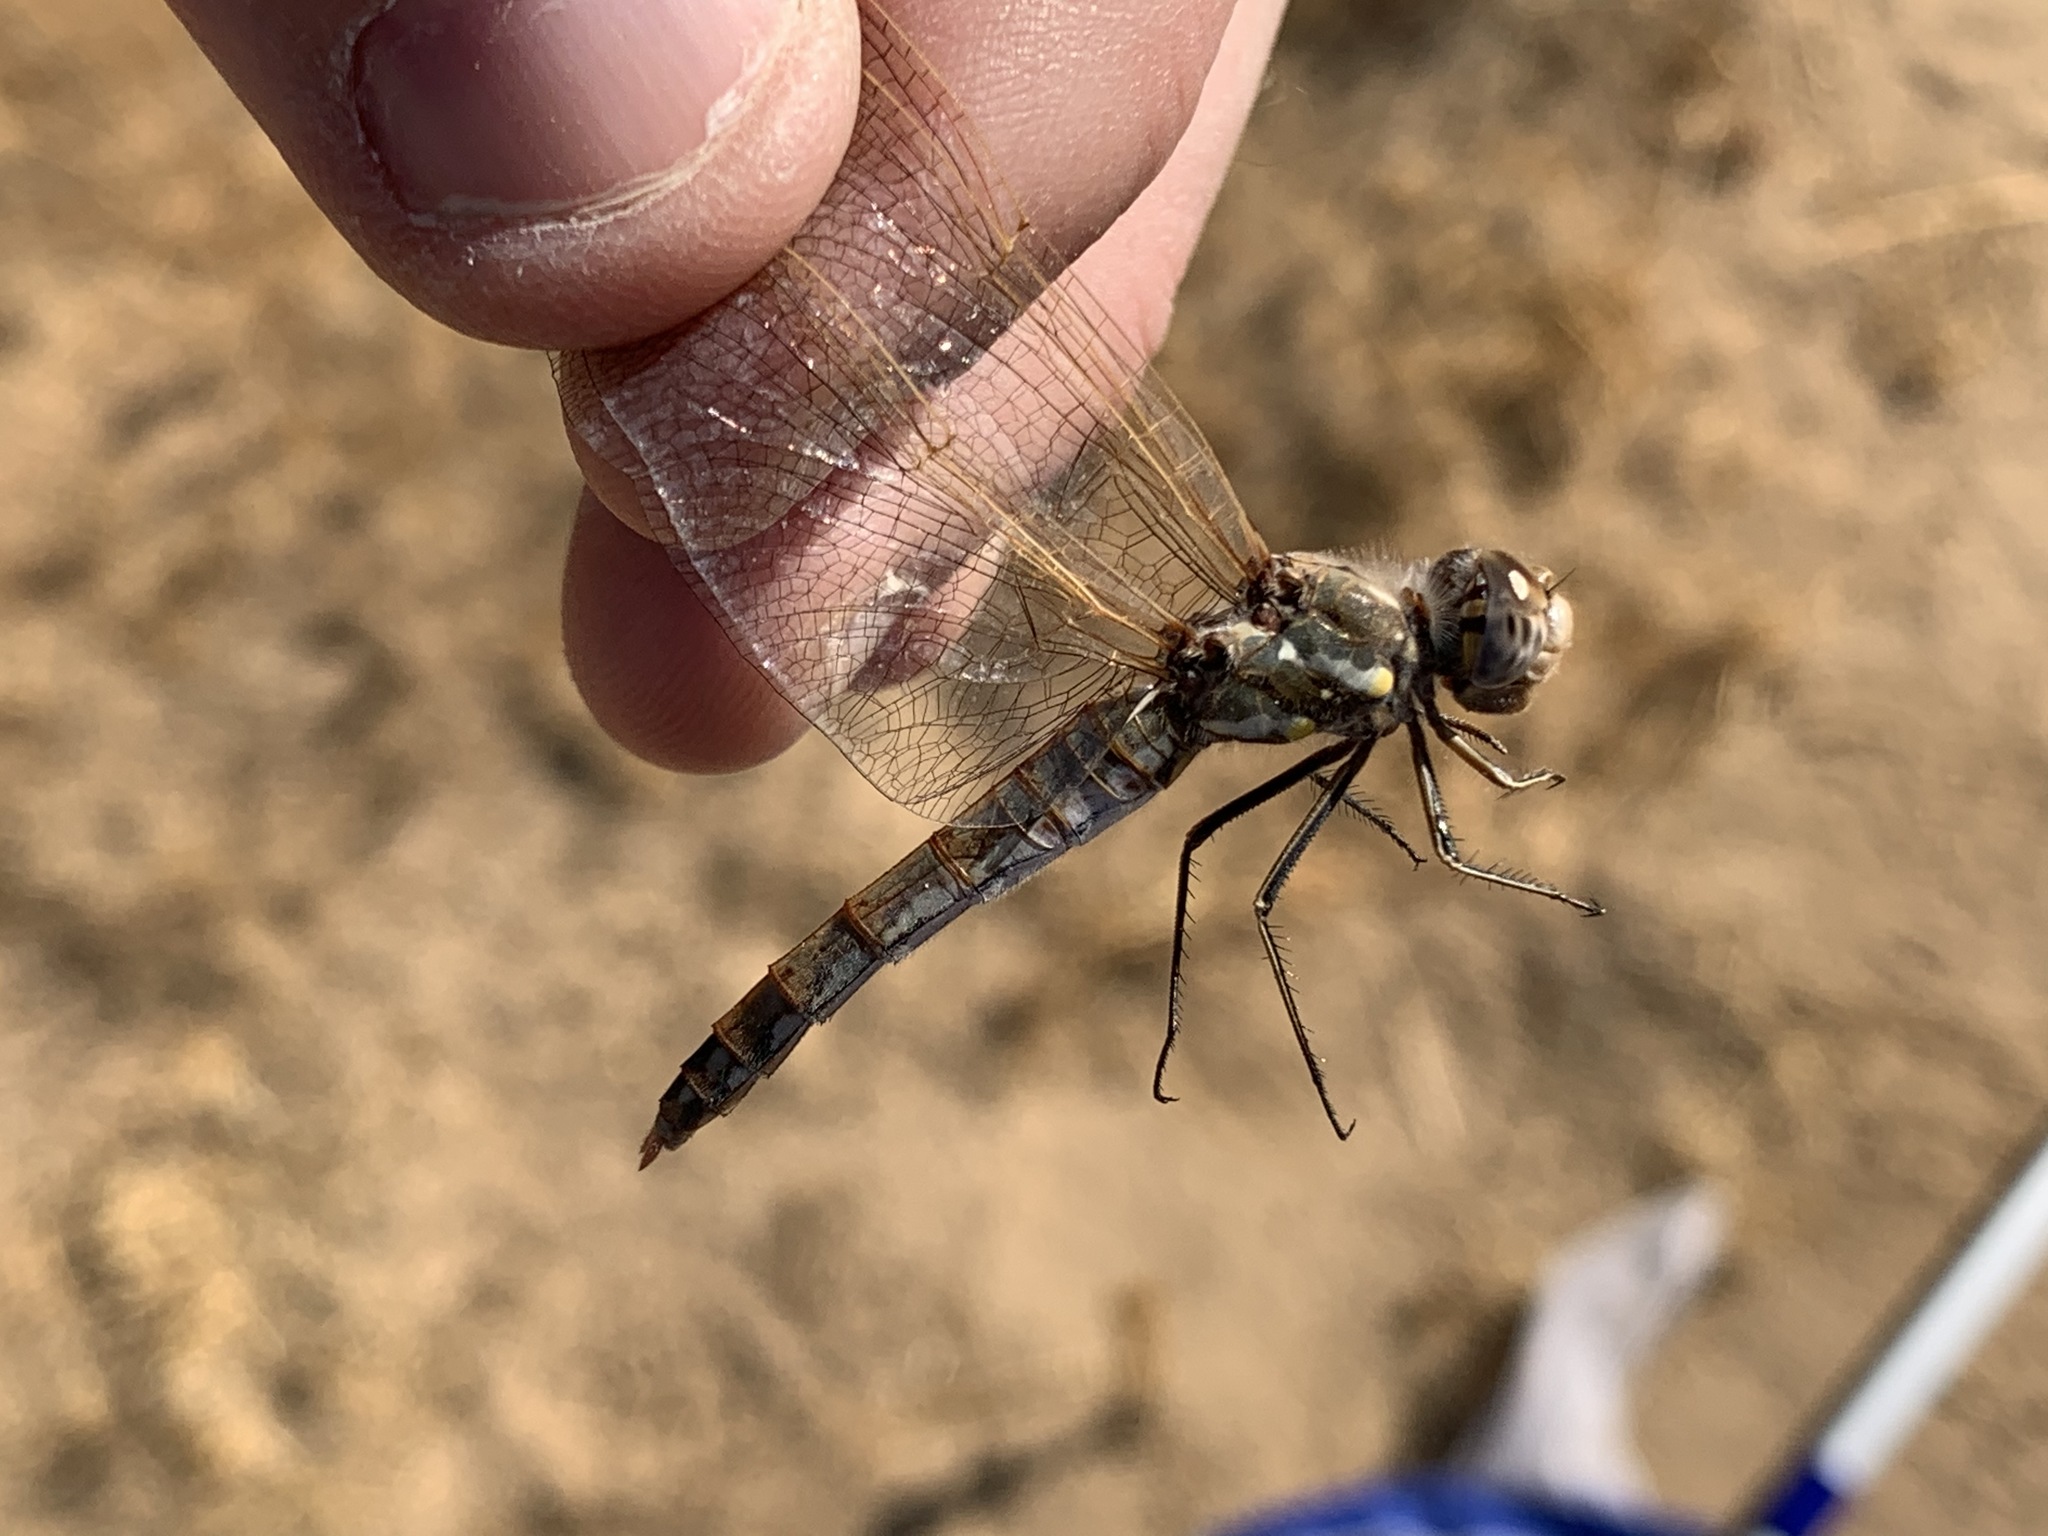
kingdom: Animalia
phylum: Arthropoda
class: Insecta
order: Odonata
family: Libellulidae
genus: Sympetrum
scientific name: Sympetrum corruptum
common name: Variegated meadowhawk
